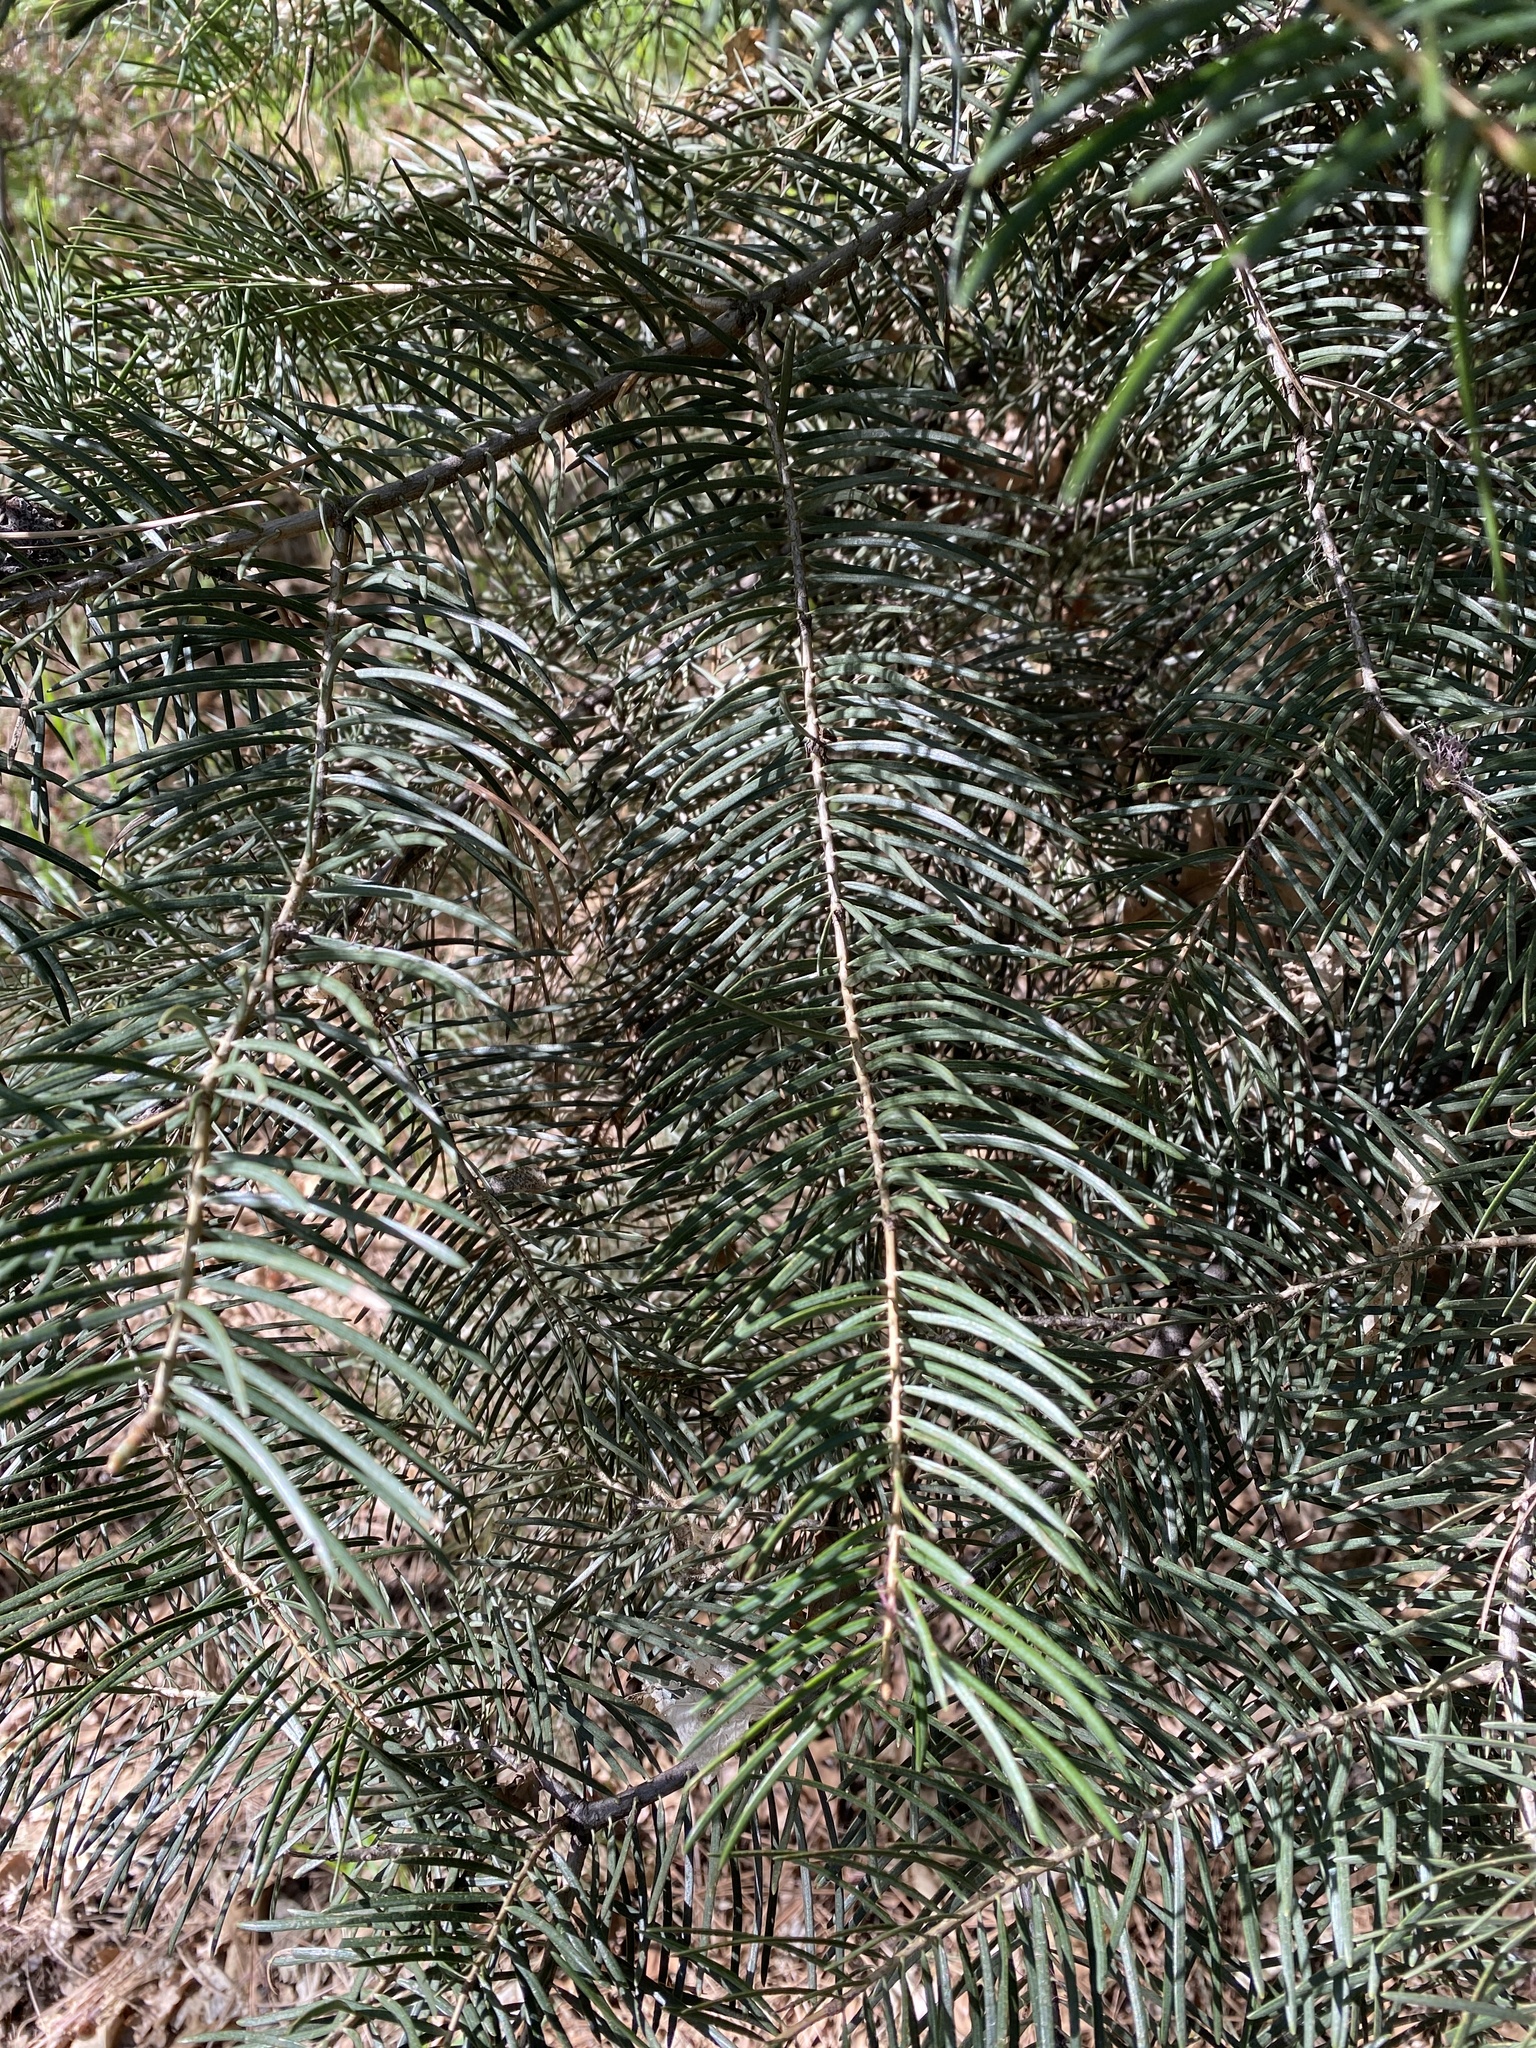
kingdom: Plantae
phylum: Tracheophyta
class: Pinopsida
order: Pinales
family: Pinaceae
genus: Abies
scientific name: Abies concolor
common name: Colorado fir
